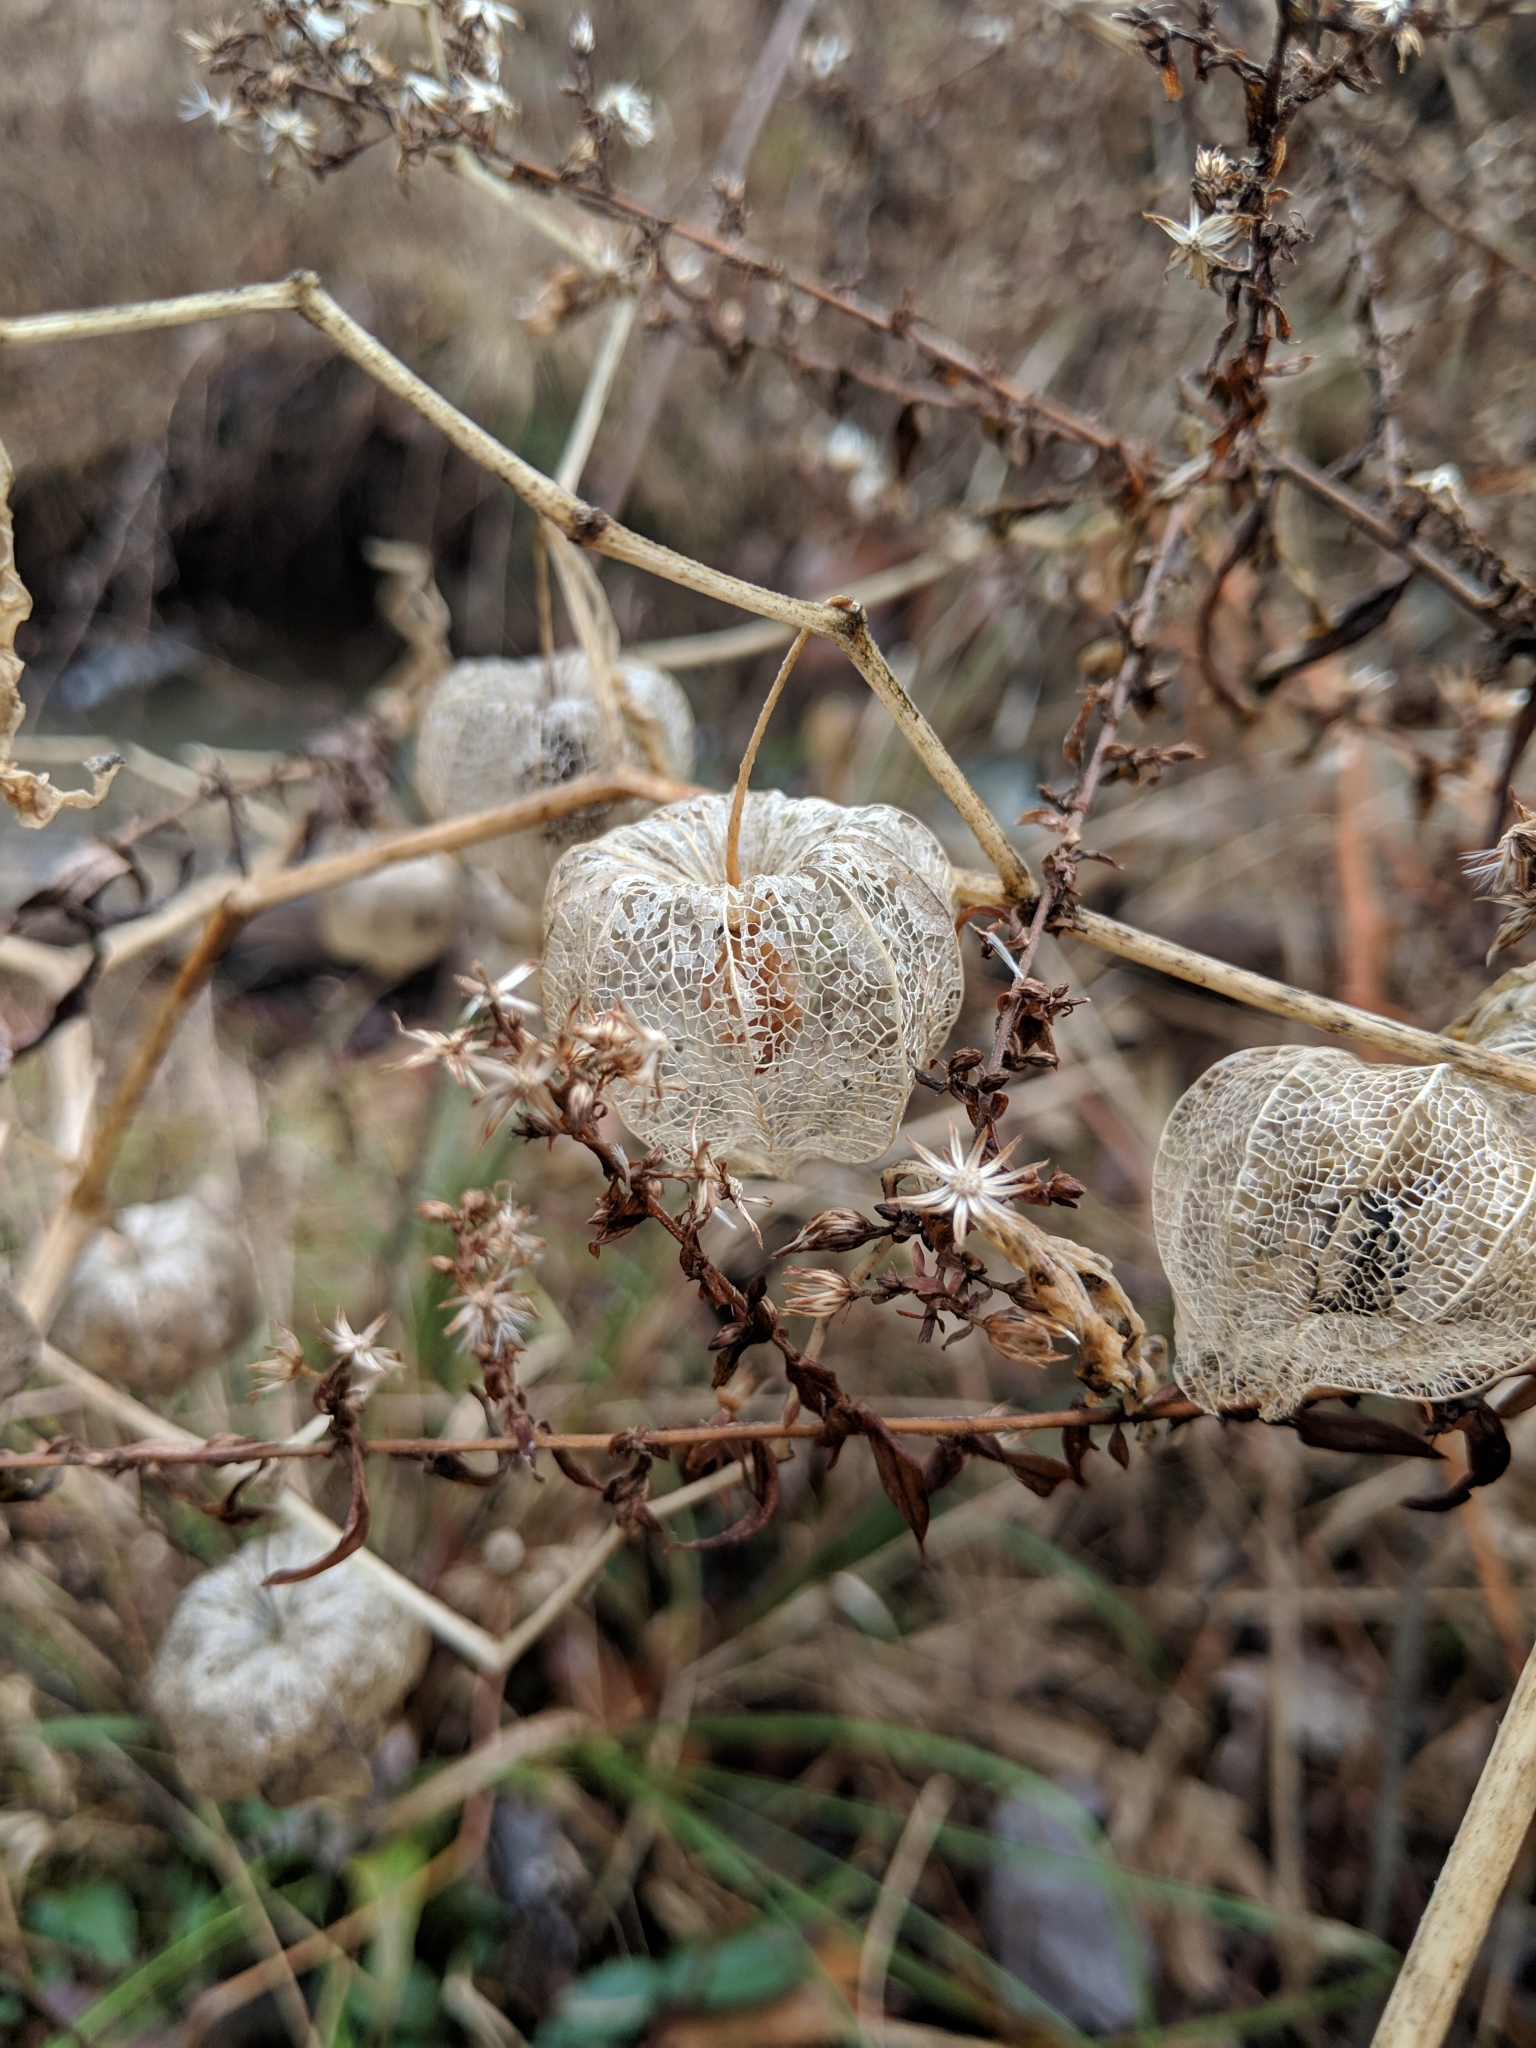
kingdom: Plantae
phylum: Tracheophyta
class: Magnoliopsida
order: Solanales
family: Solanaceae
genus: Physalis
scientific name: Physalis
